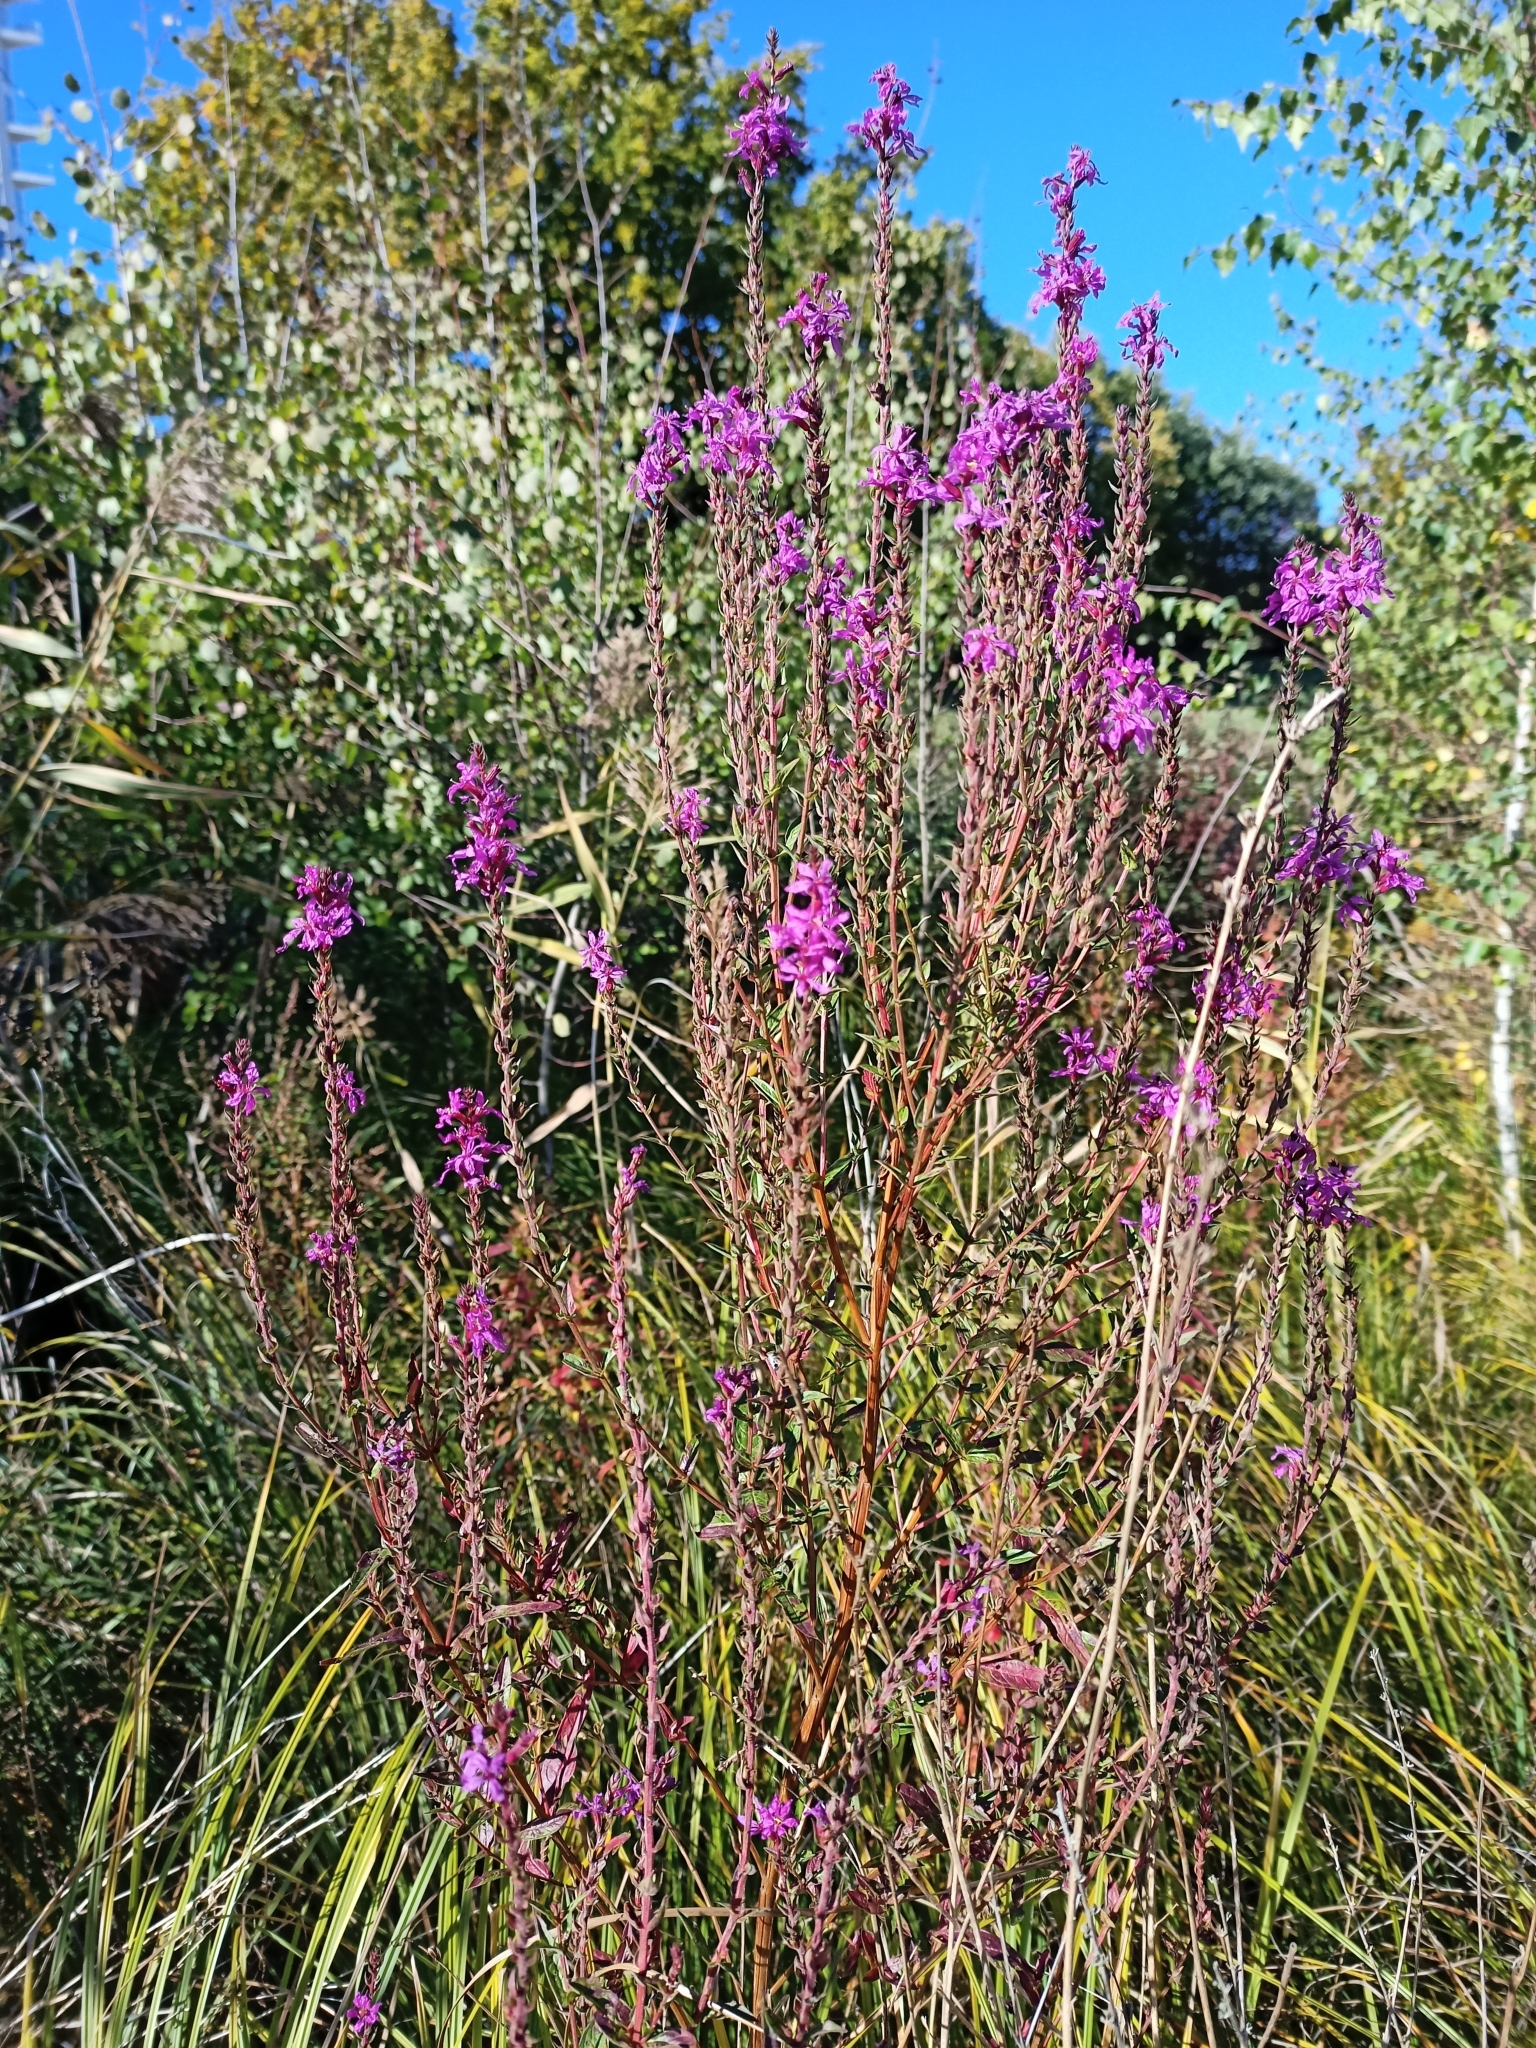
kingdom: Plantae
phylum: Tracheophyta
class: Magnoliopsida
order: Myrtales
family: Lythraceae
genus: Lythrum
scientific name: Lythrum salicaria
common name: Purple loosestrife
